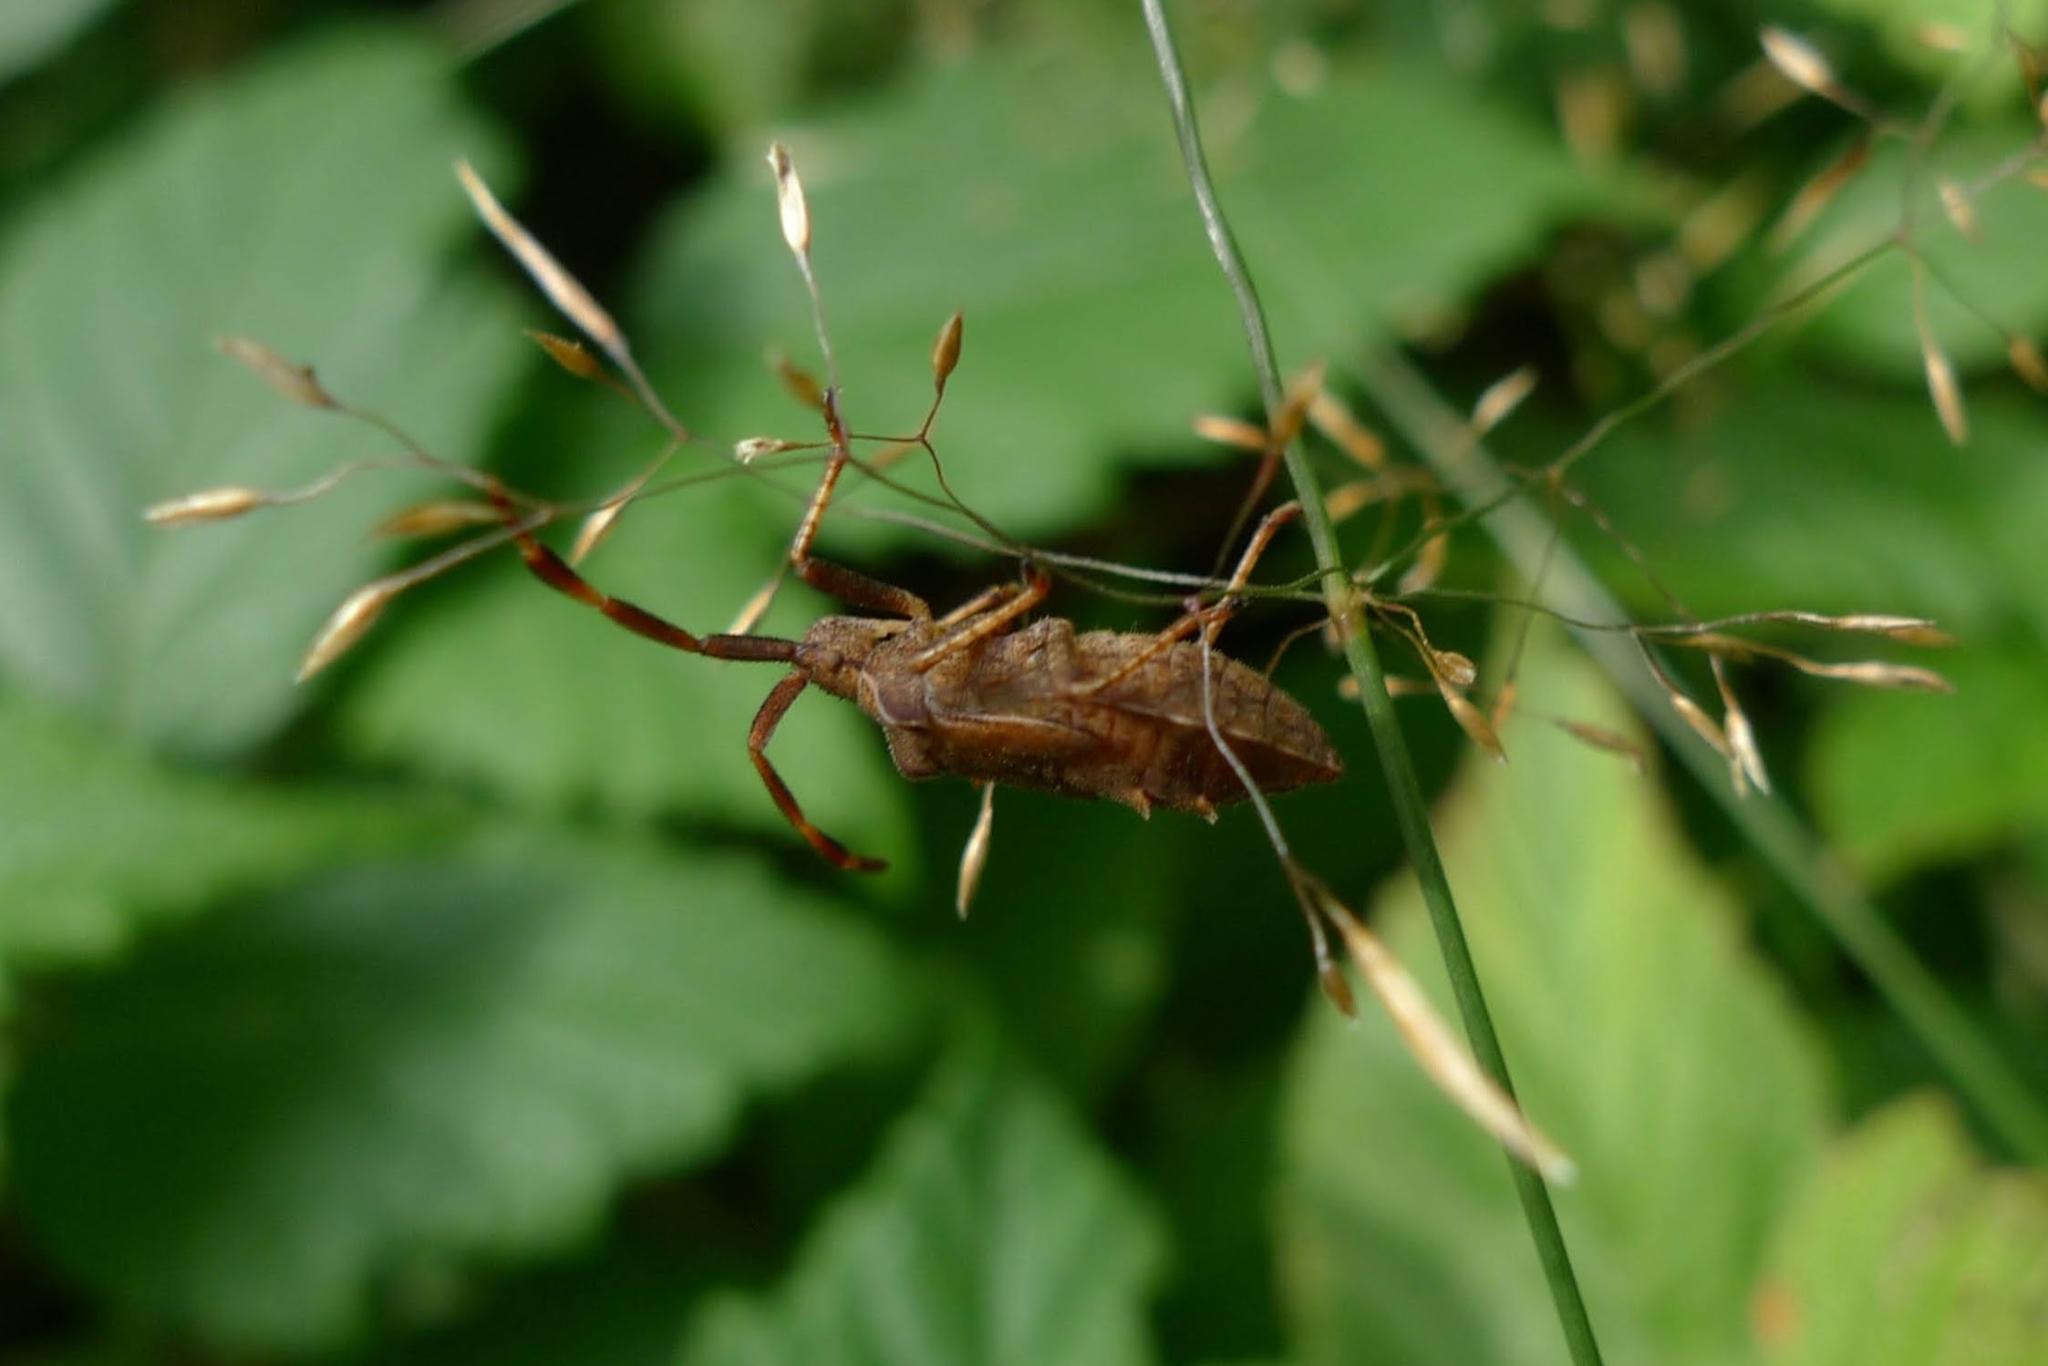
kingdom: Animalia
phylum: Arthropoda
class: Insecta
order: Hemiptera
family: Coreidae
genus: Coreus
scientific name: Coreus marginatus
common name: Dock bug
